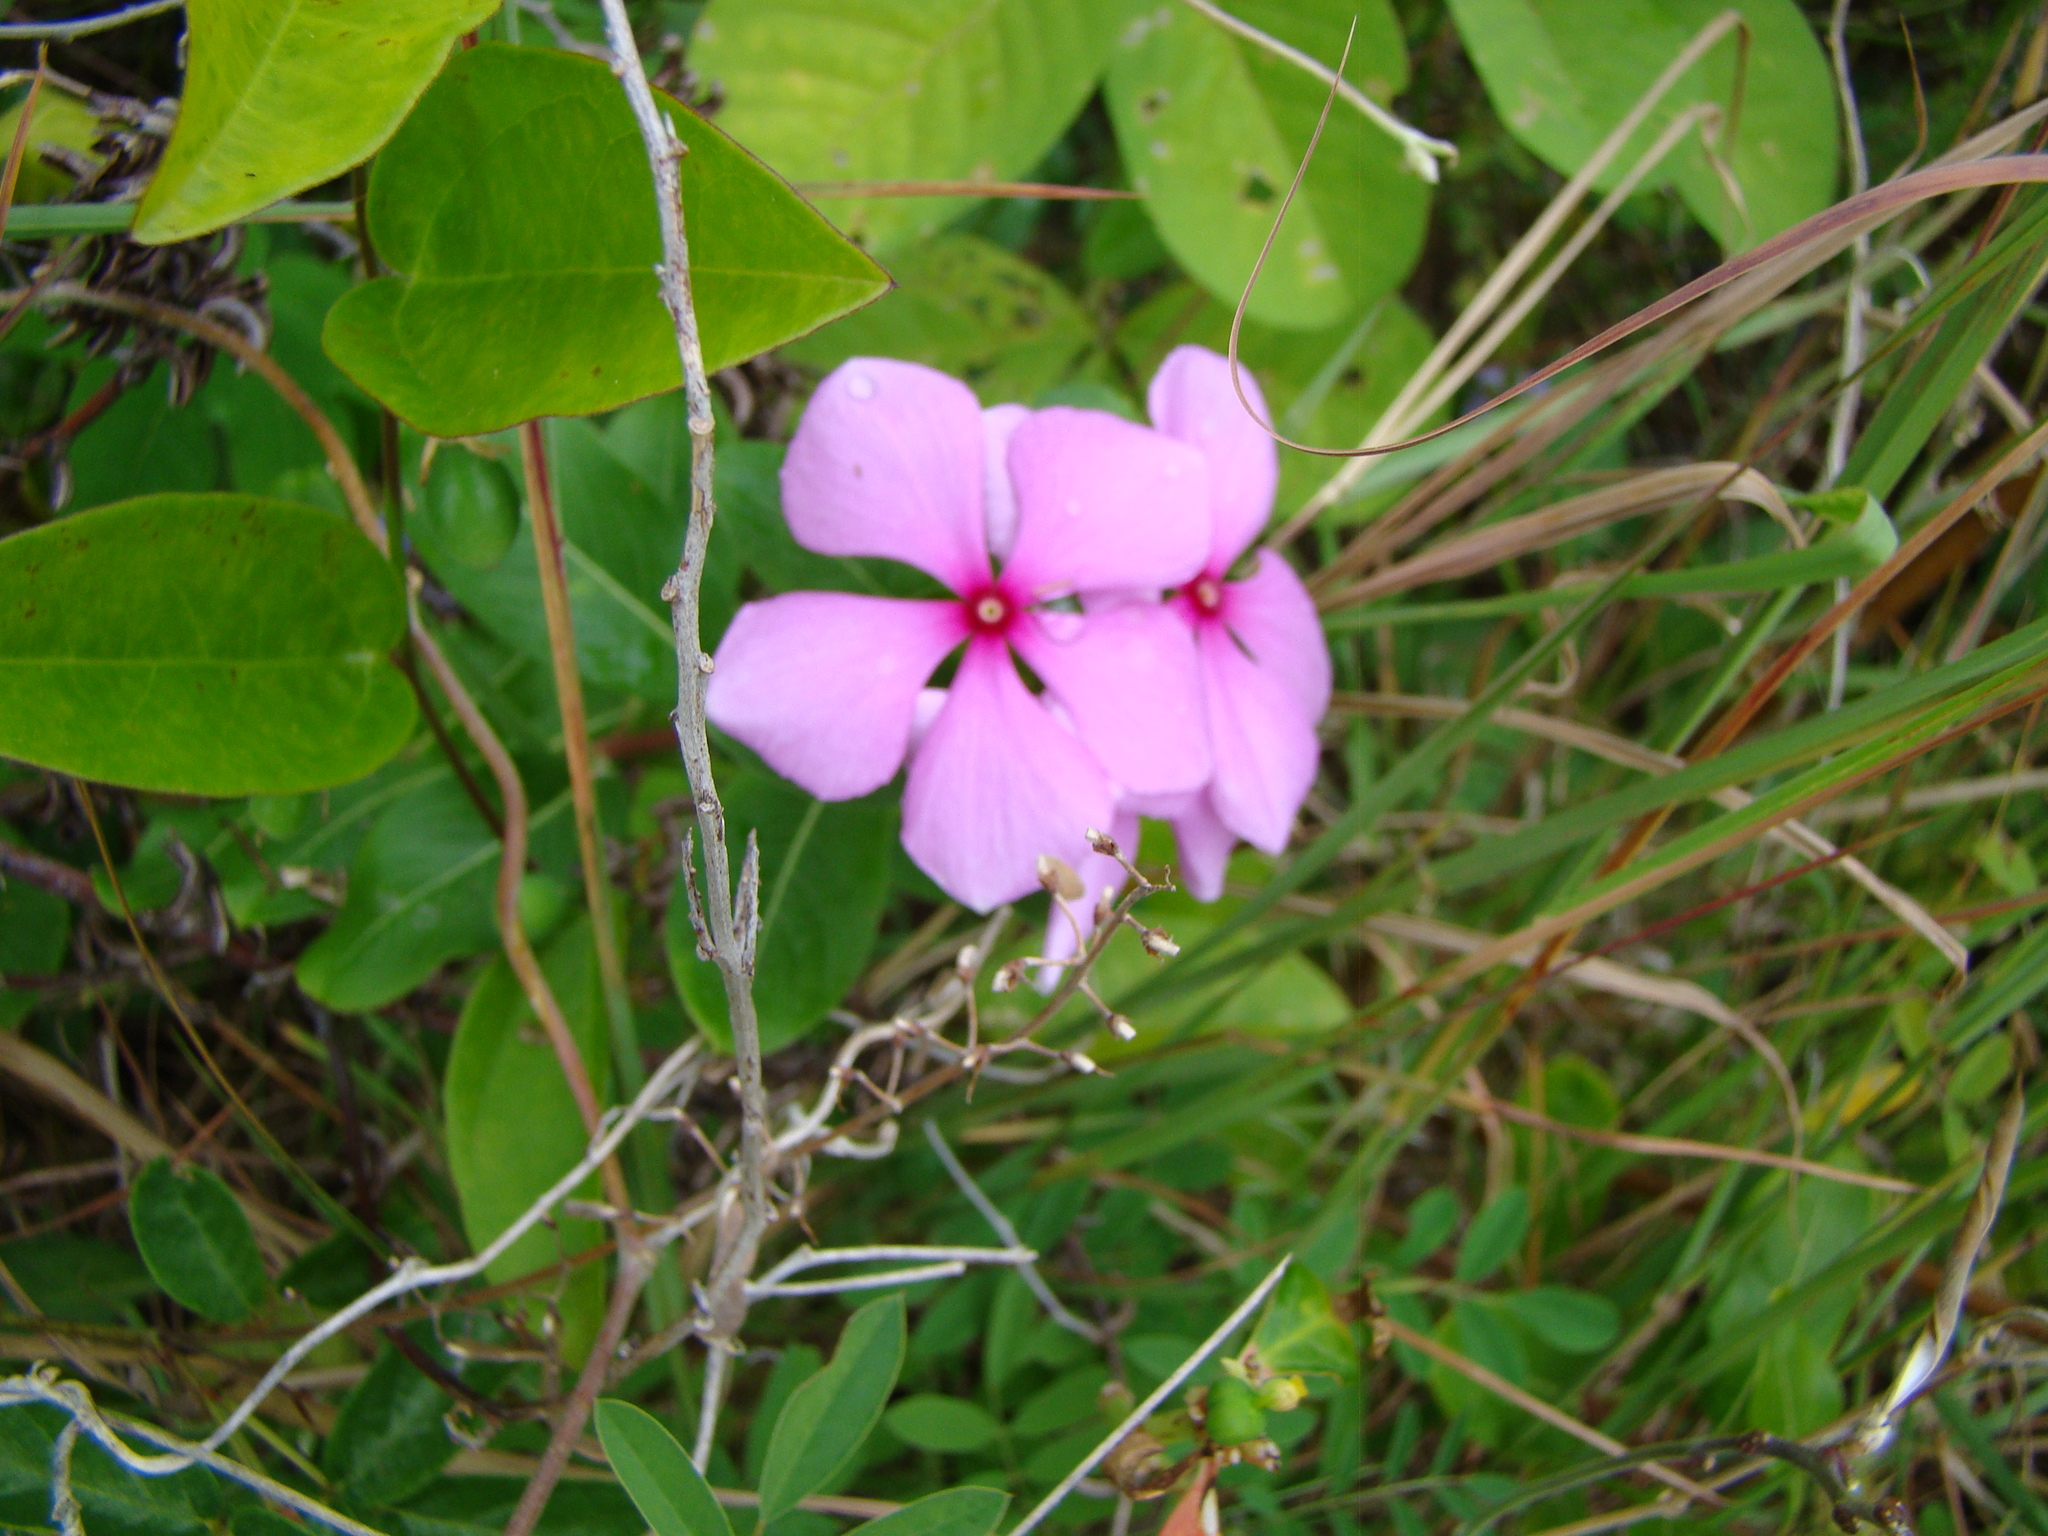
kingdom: Plantae
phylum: Tracheophyta
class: Magnoliopsida
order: Gentianales
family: Apocynaceae
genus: Catharanthus
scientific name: Catharanthus roseus
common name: Madagascar periwinkle
